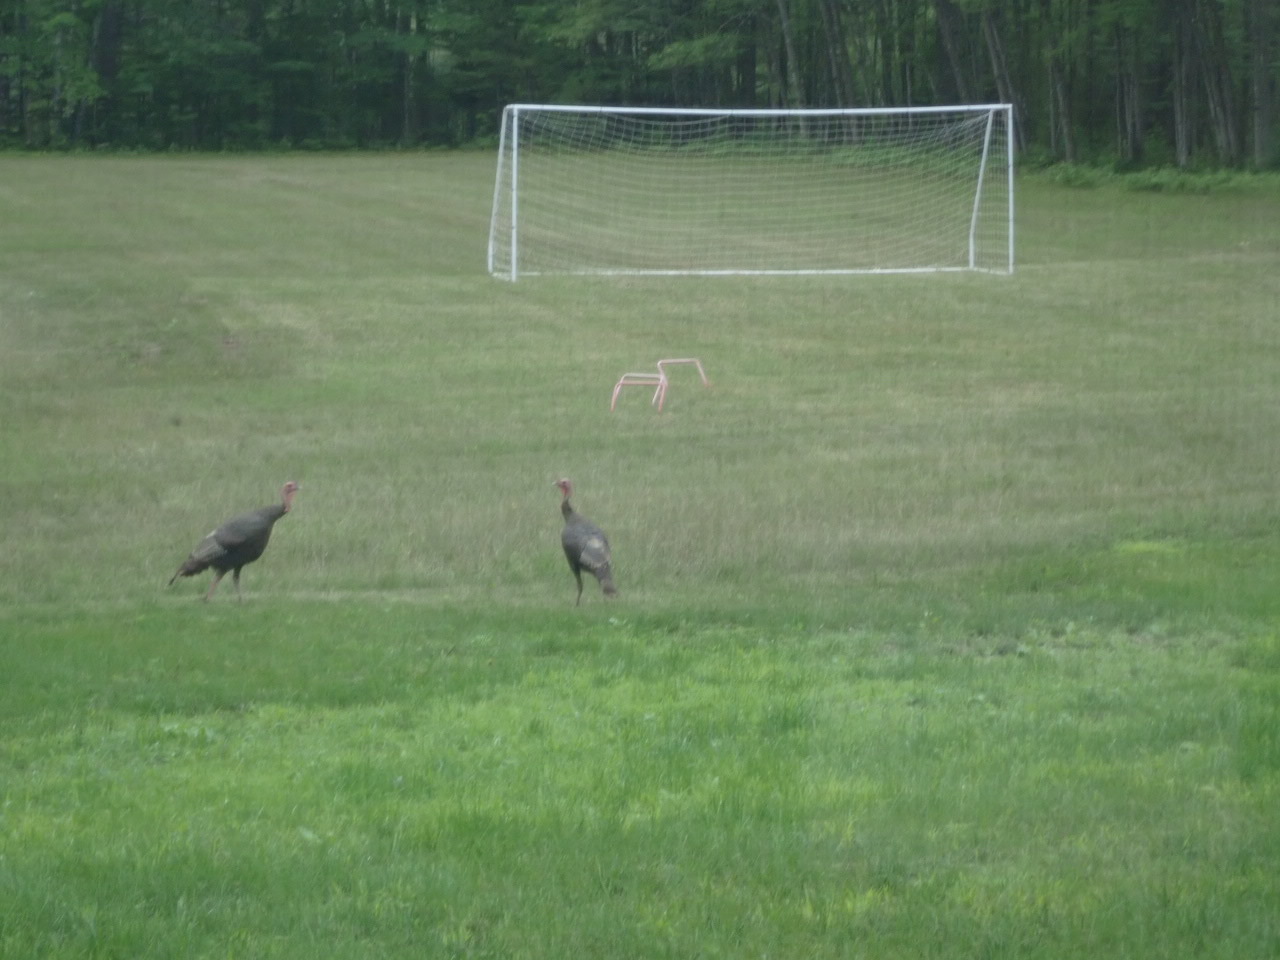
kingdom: Animalia
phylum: Chordata
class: Aves
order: Galliformes
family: Phasianidae
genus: Meleagris
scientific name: Meleagris gallopavo
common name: Wild turkey
